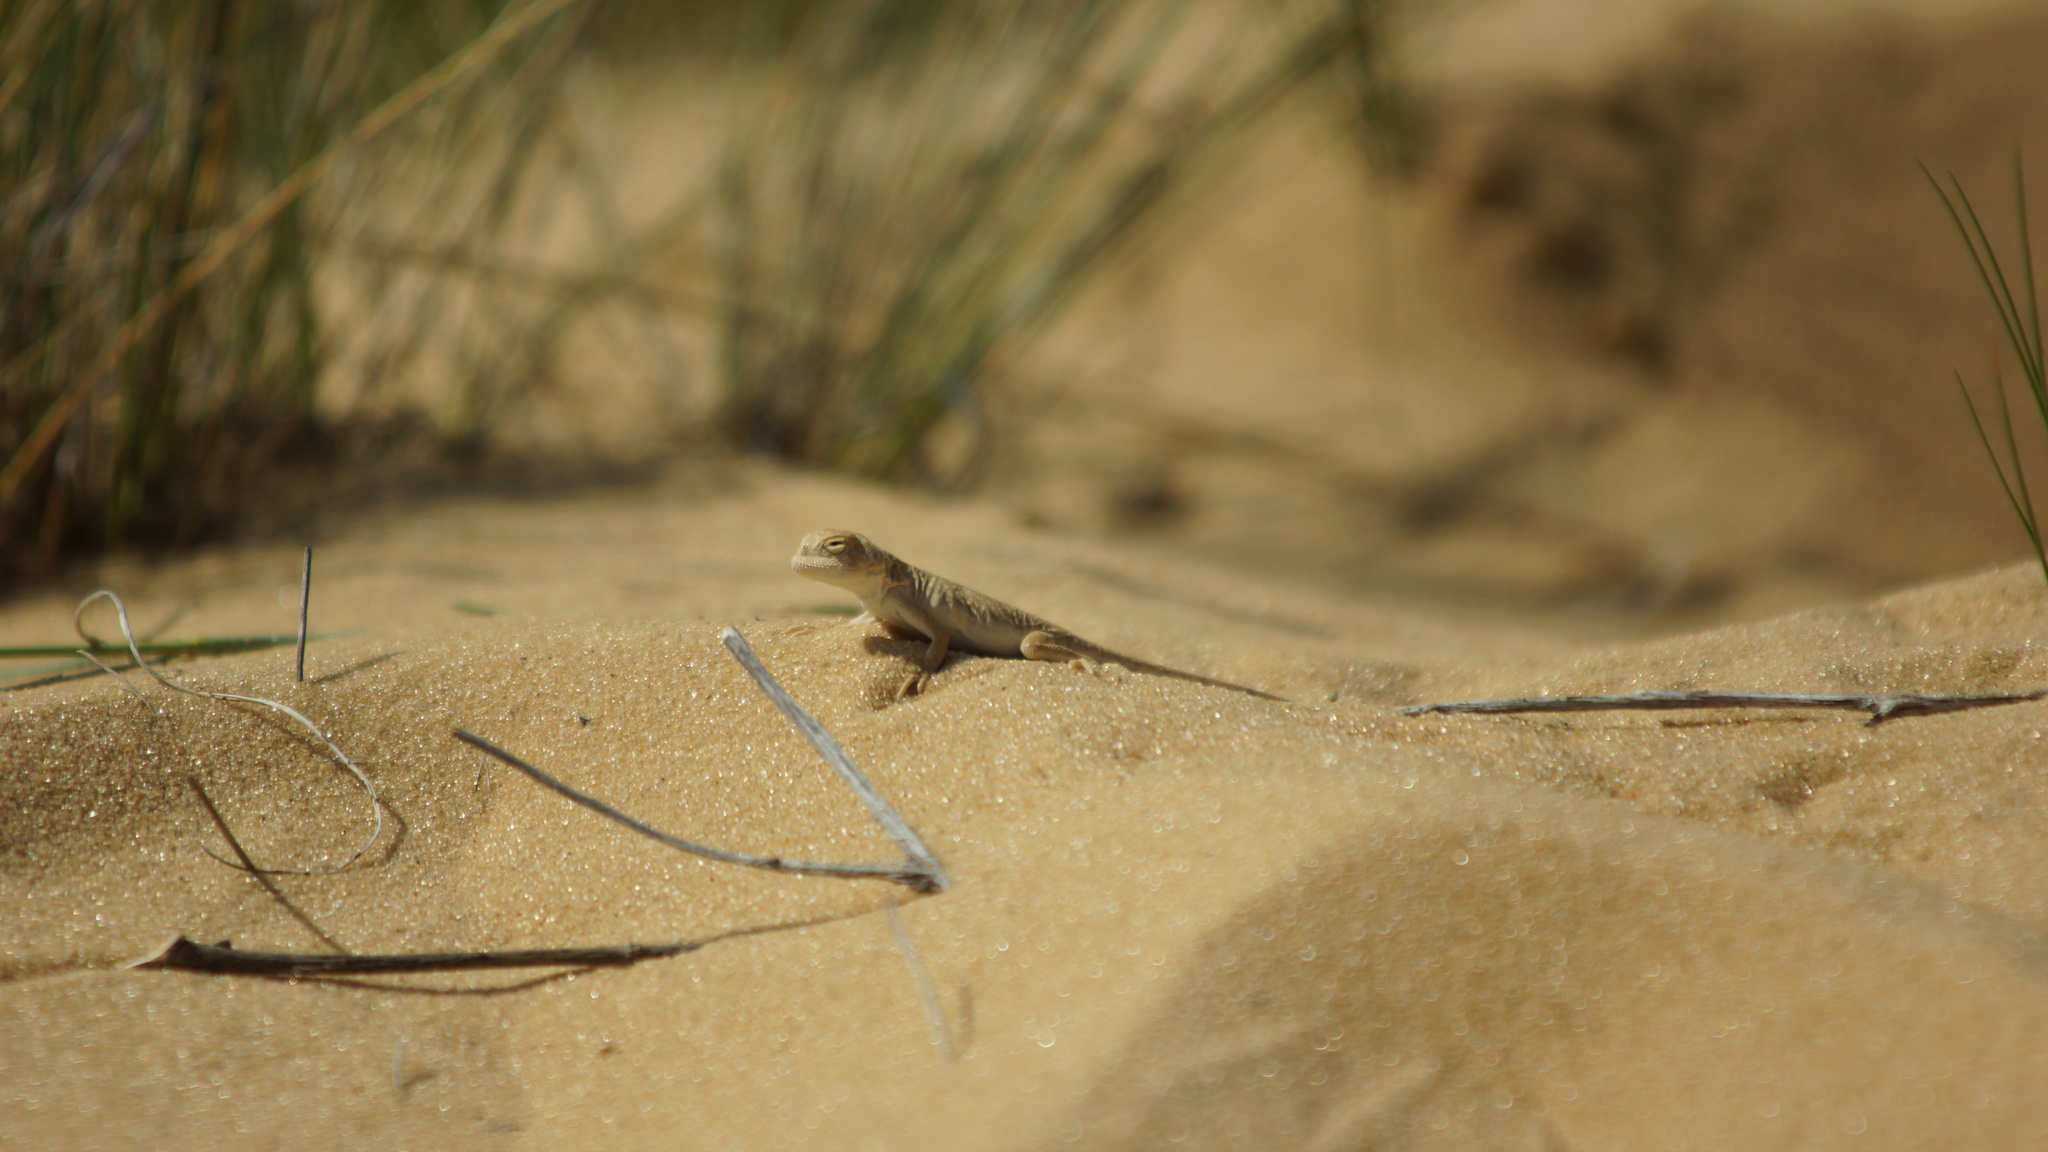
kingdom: Animalia
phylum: Chordata
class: Squamata
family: Agamidae
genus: Phrynocephalus
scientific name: Phrynocephalus guttatus
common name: Spotted toadhead agama
